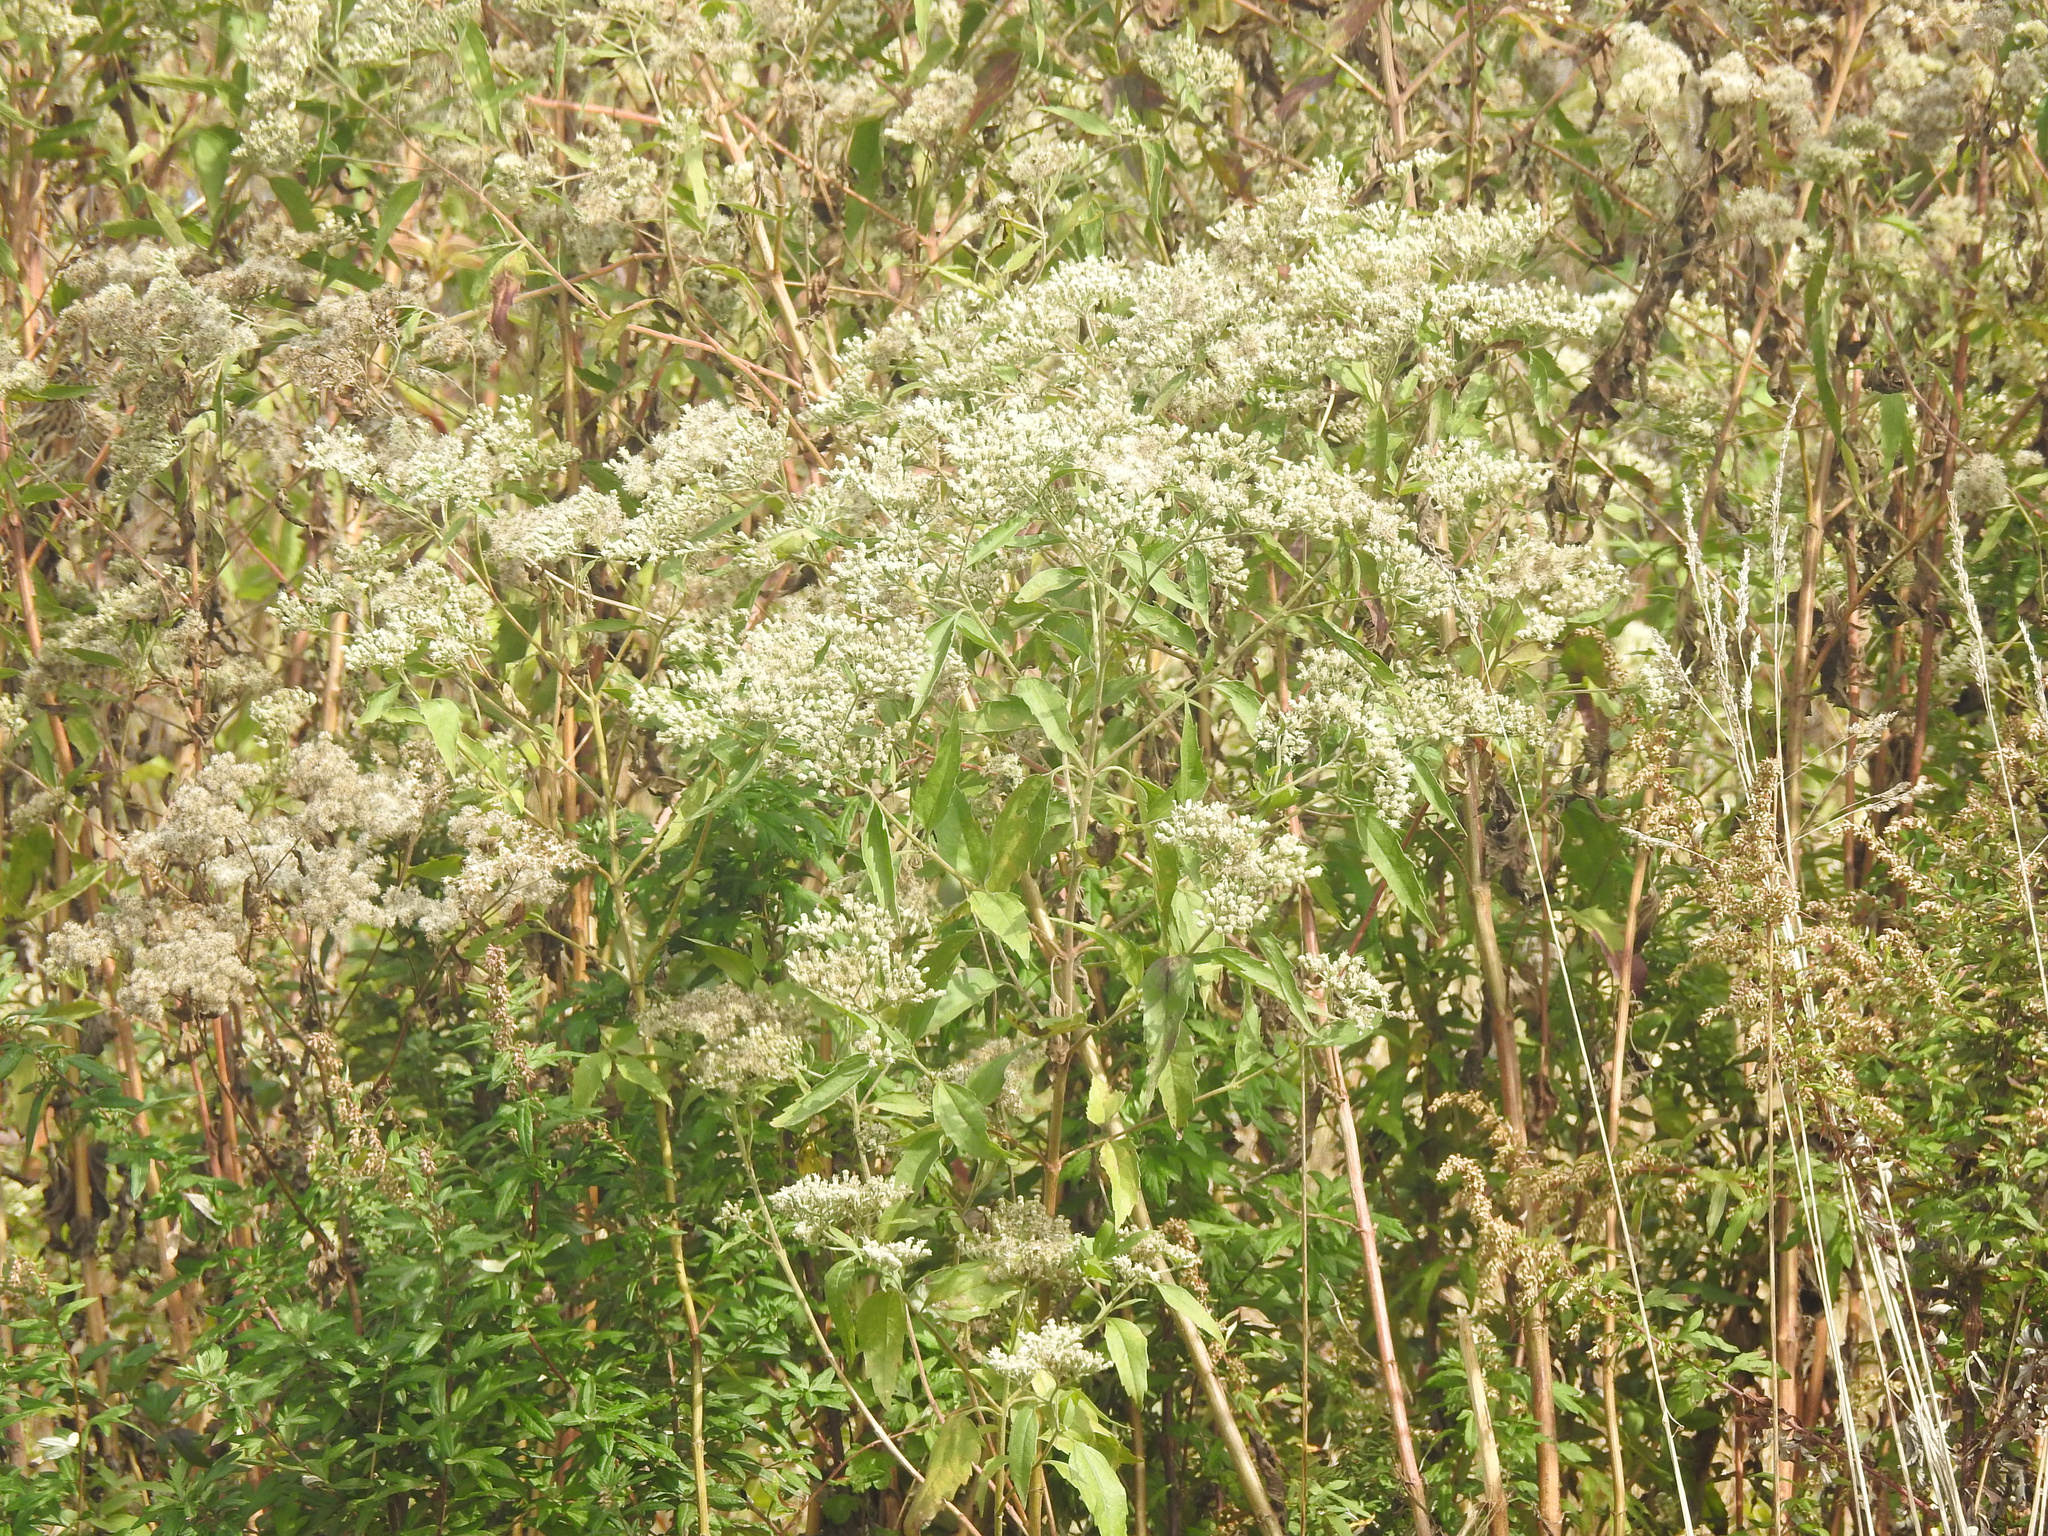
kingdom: Plantae
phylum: Tracheophyta
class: Magnoliopsida
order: Asterales
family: Asteraceae
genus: Eupatorium
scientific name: Eupatorium serotinum
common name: Late boneset
